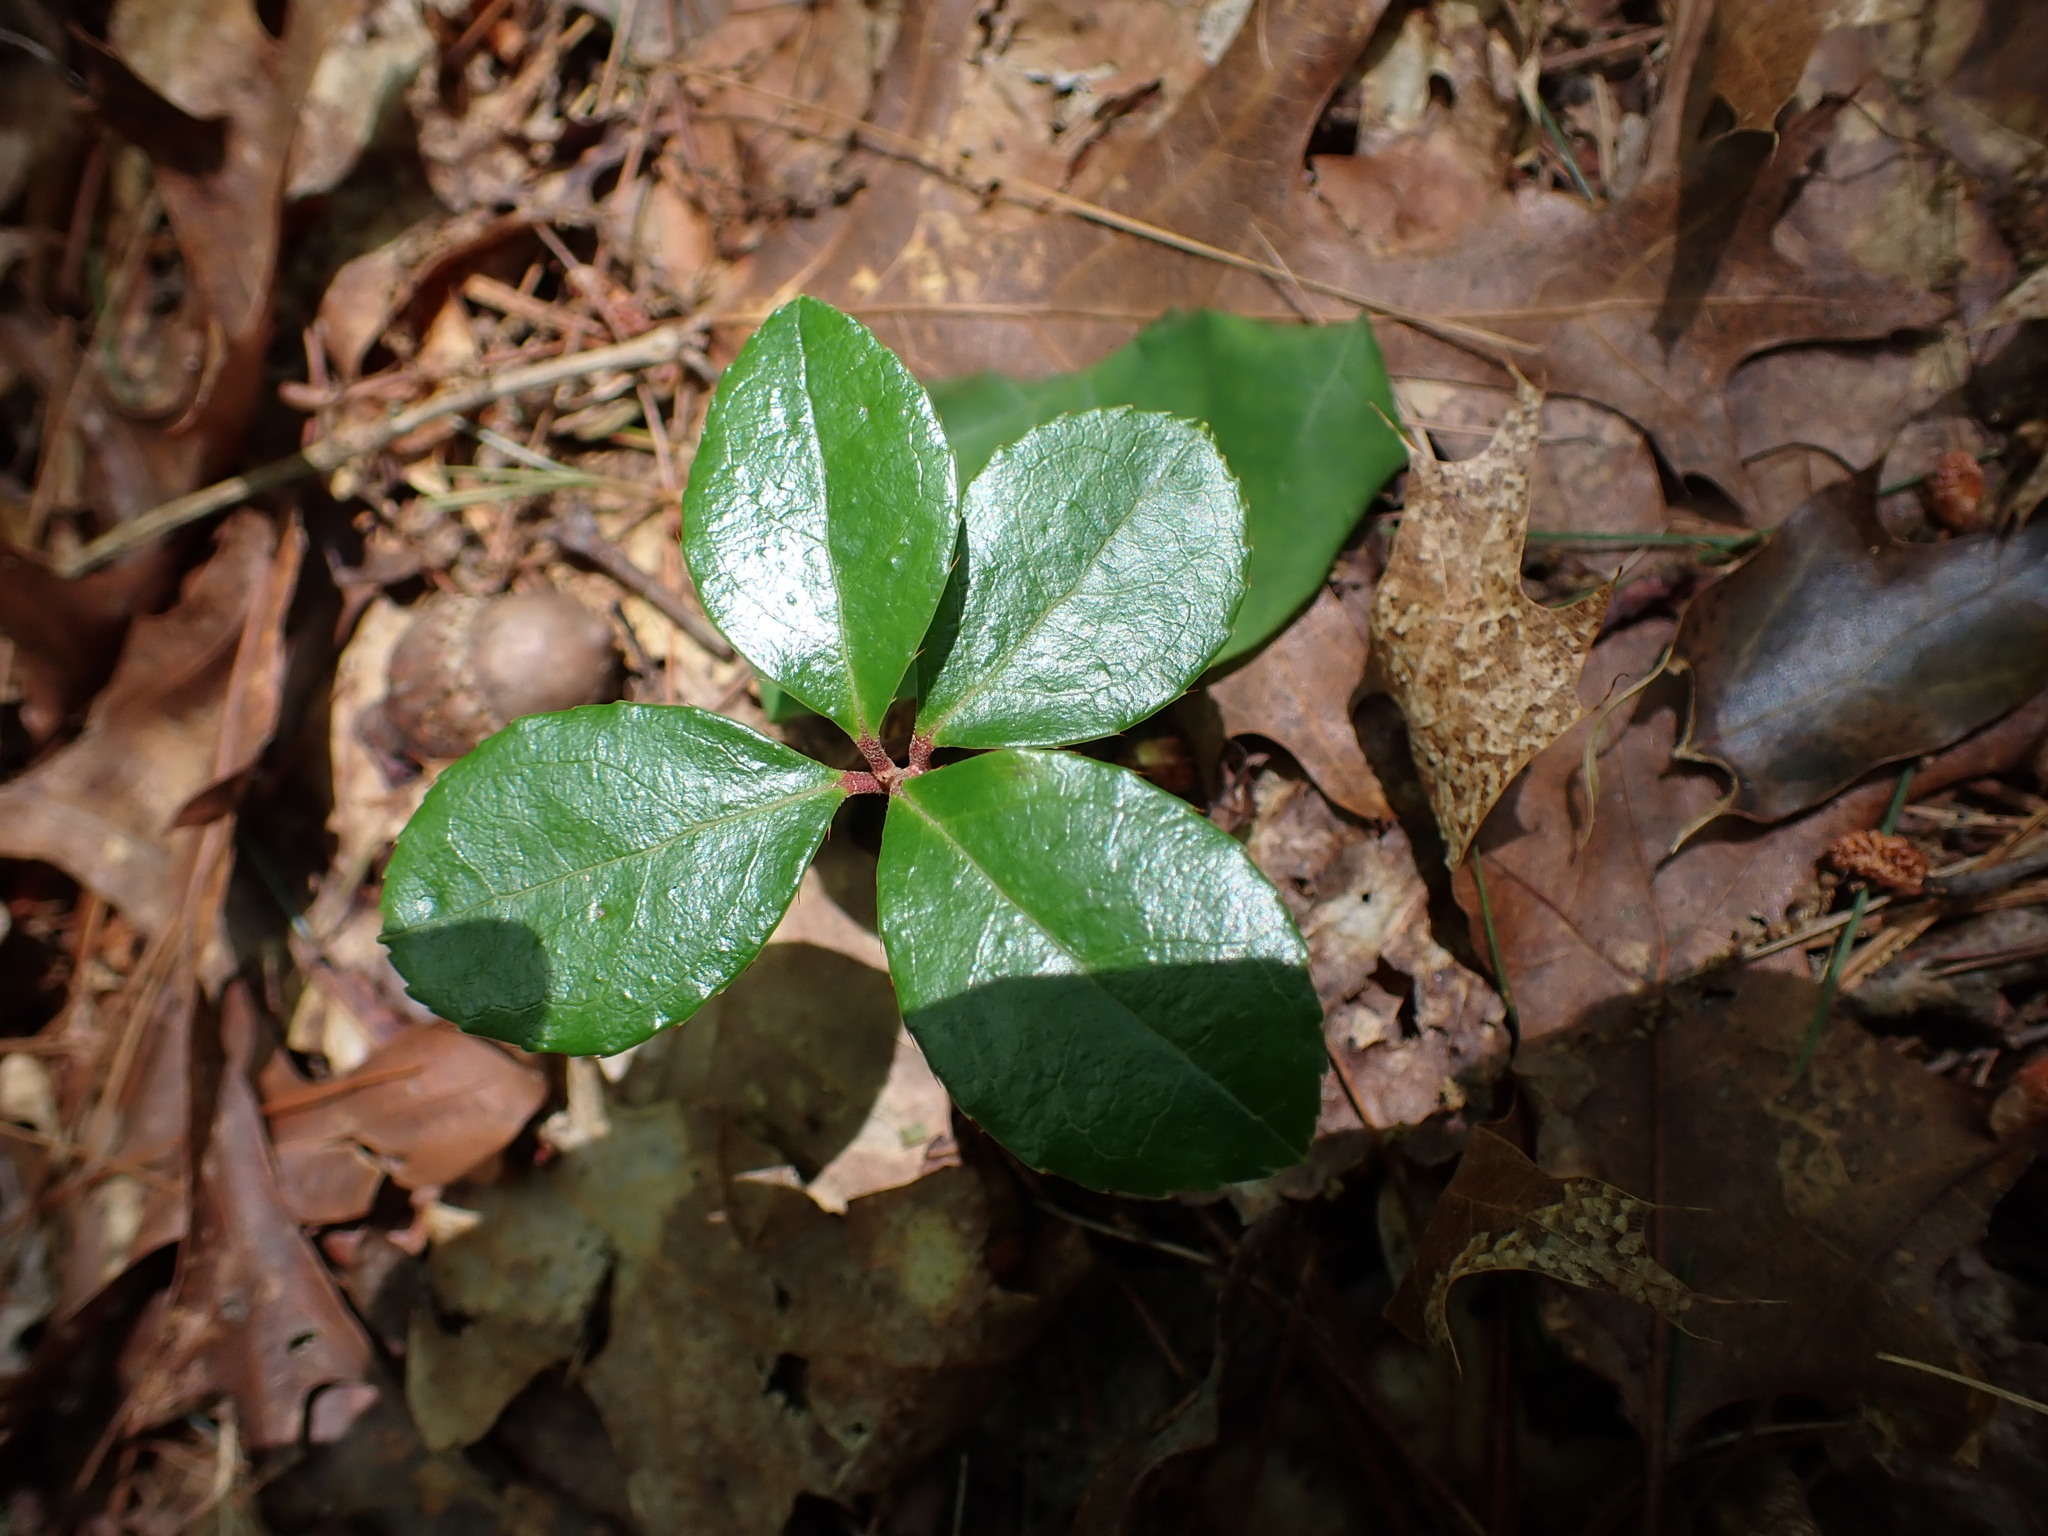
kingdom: Plantae
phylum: Tracheophyta
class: Magnoliopsida
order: Ericales
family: Ericaceae
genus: Gaultheria
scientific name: Gaultheria procumbens
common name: Checkerberry
